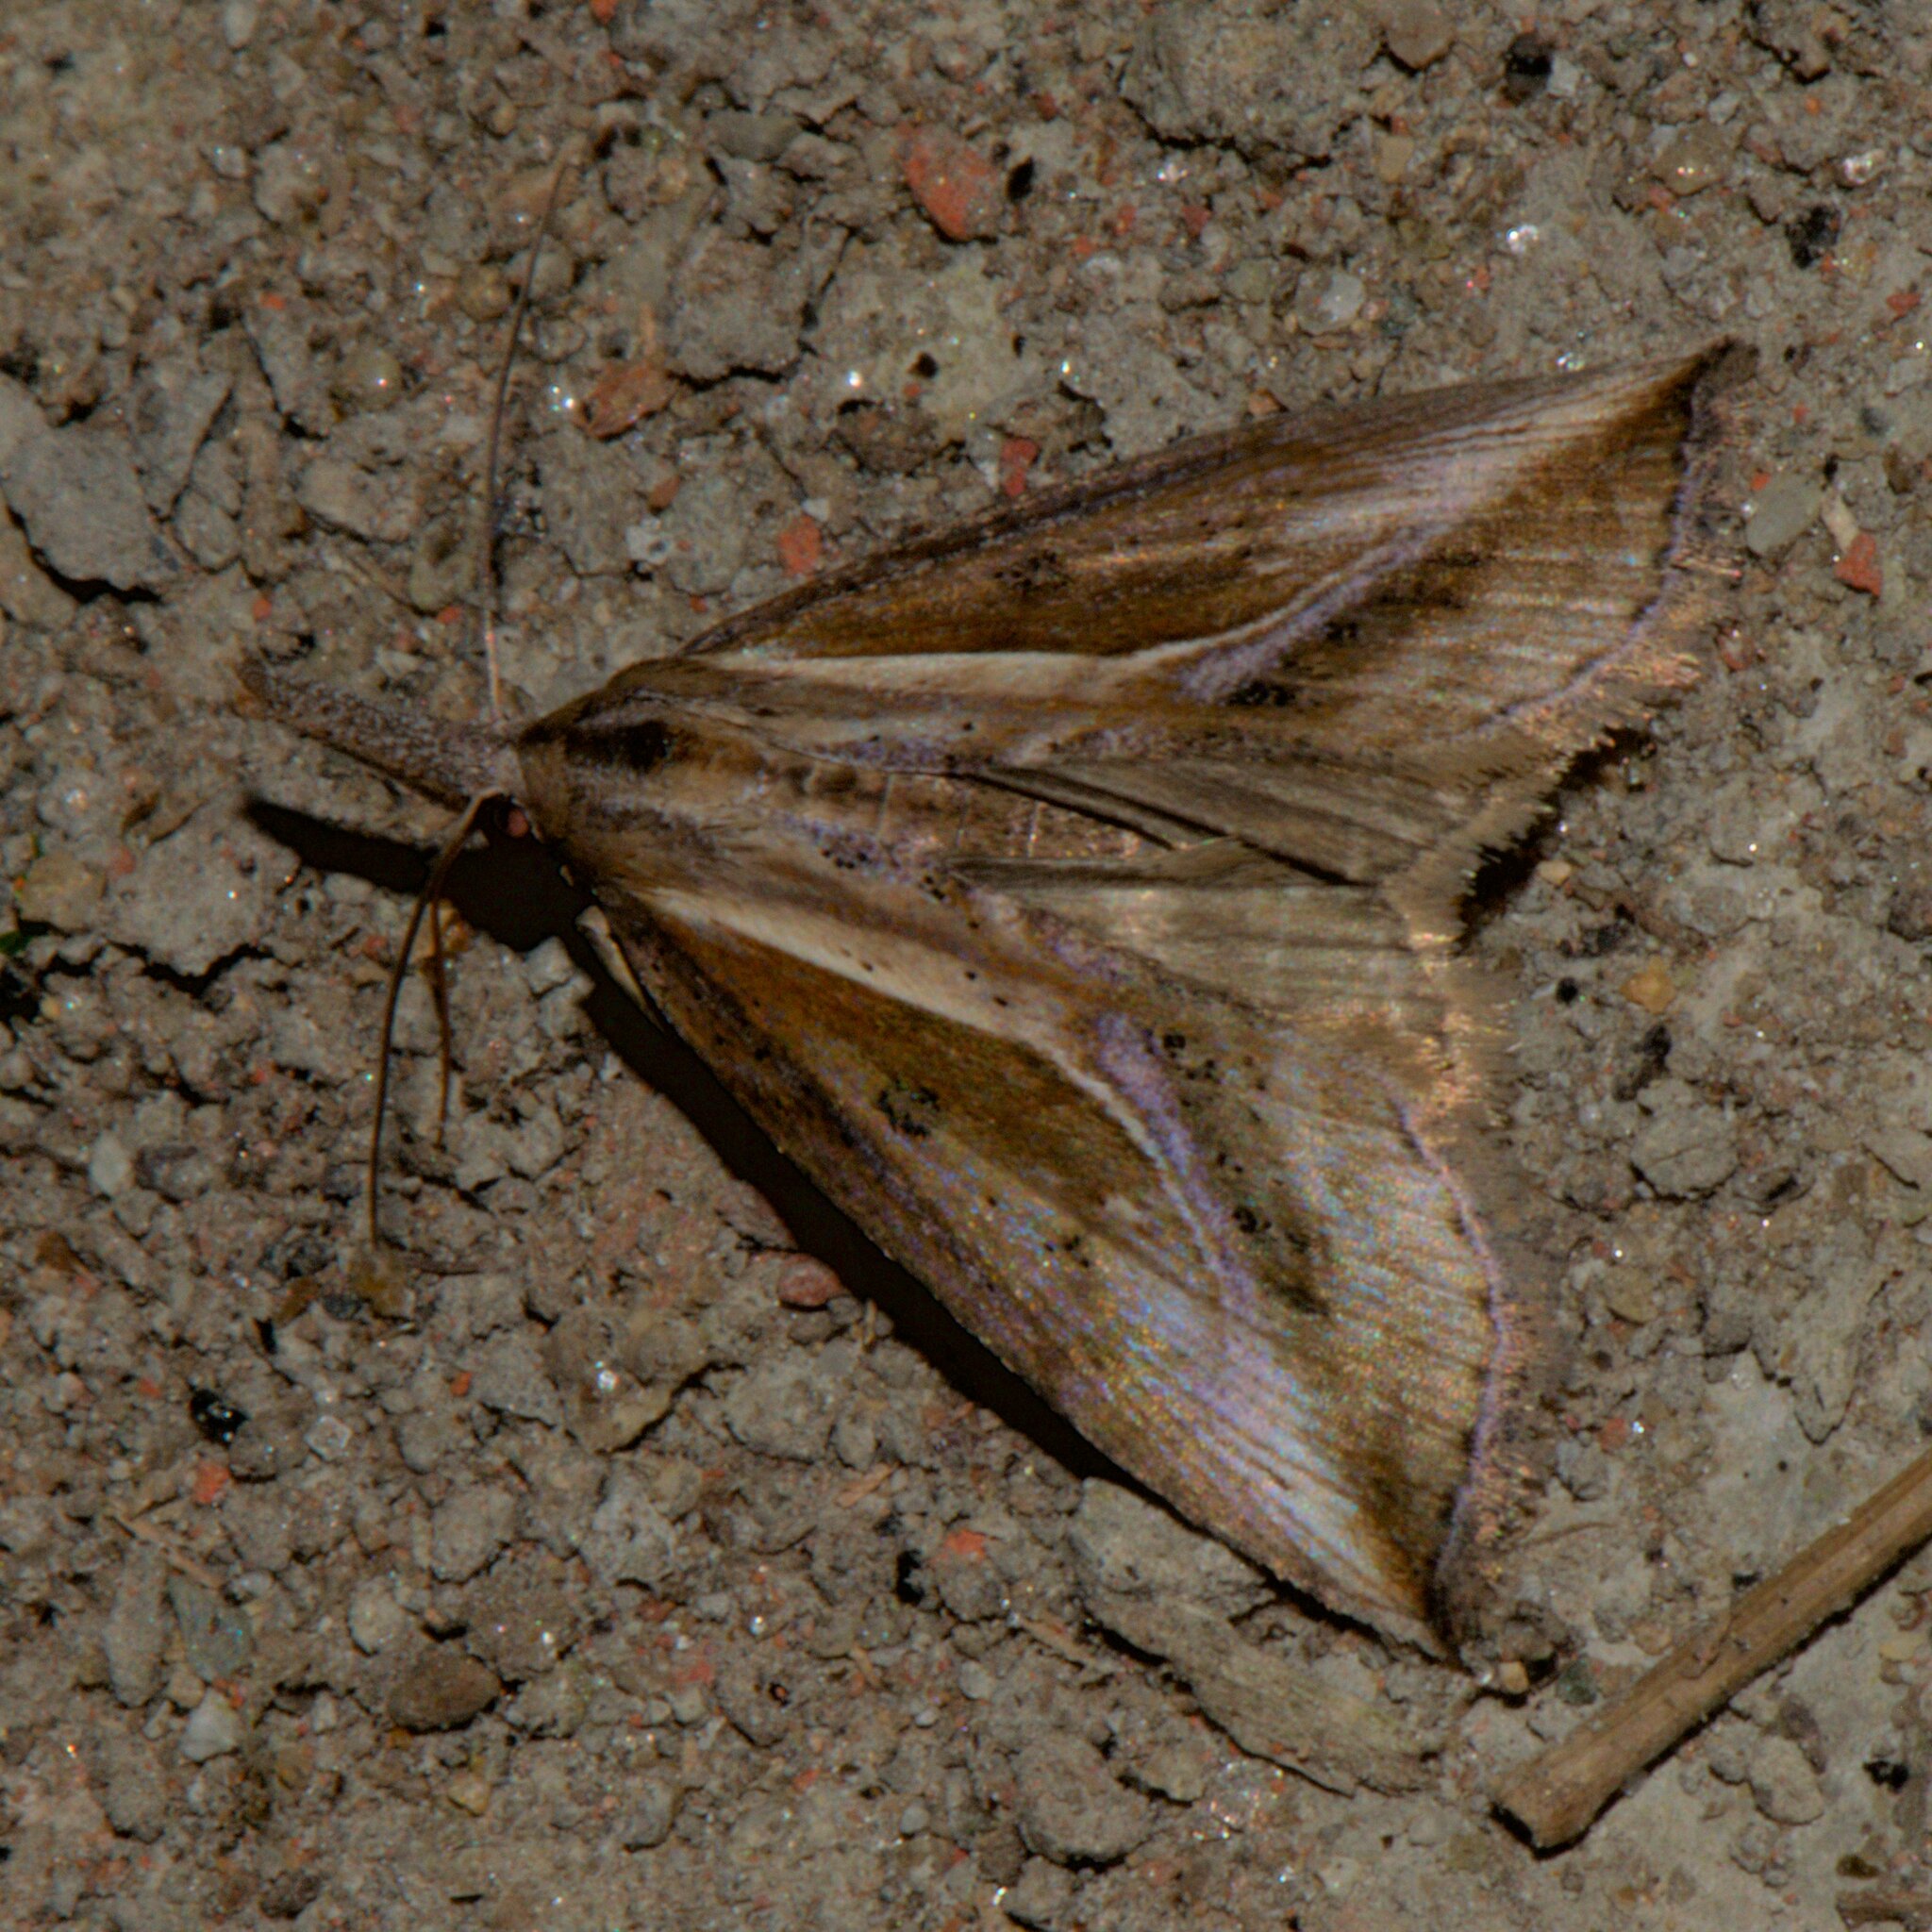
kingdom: Animalia
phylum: Arthropoda
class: Insecta
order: Lepidoptera
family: Erebidae
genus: Rhynchina
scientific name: Rhynchina angulifascia
